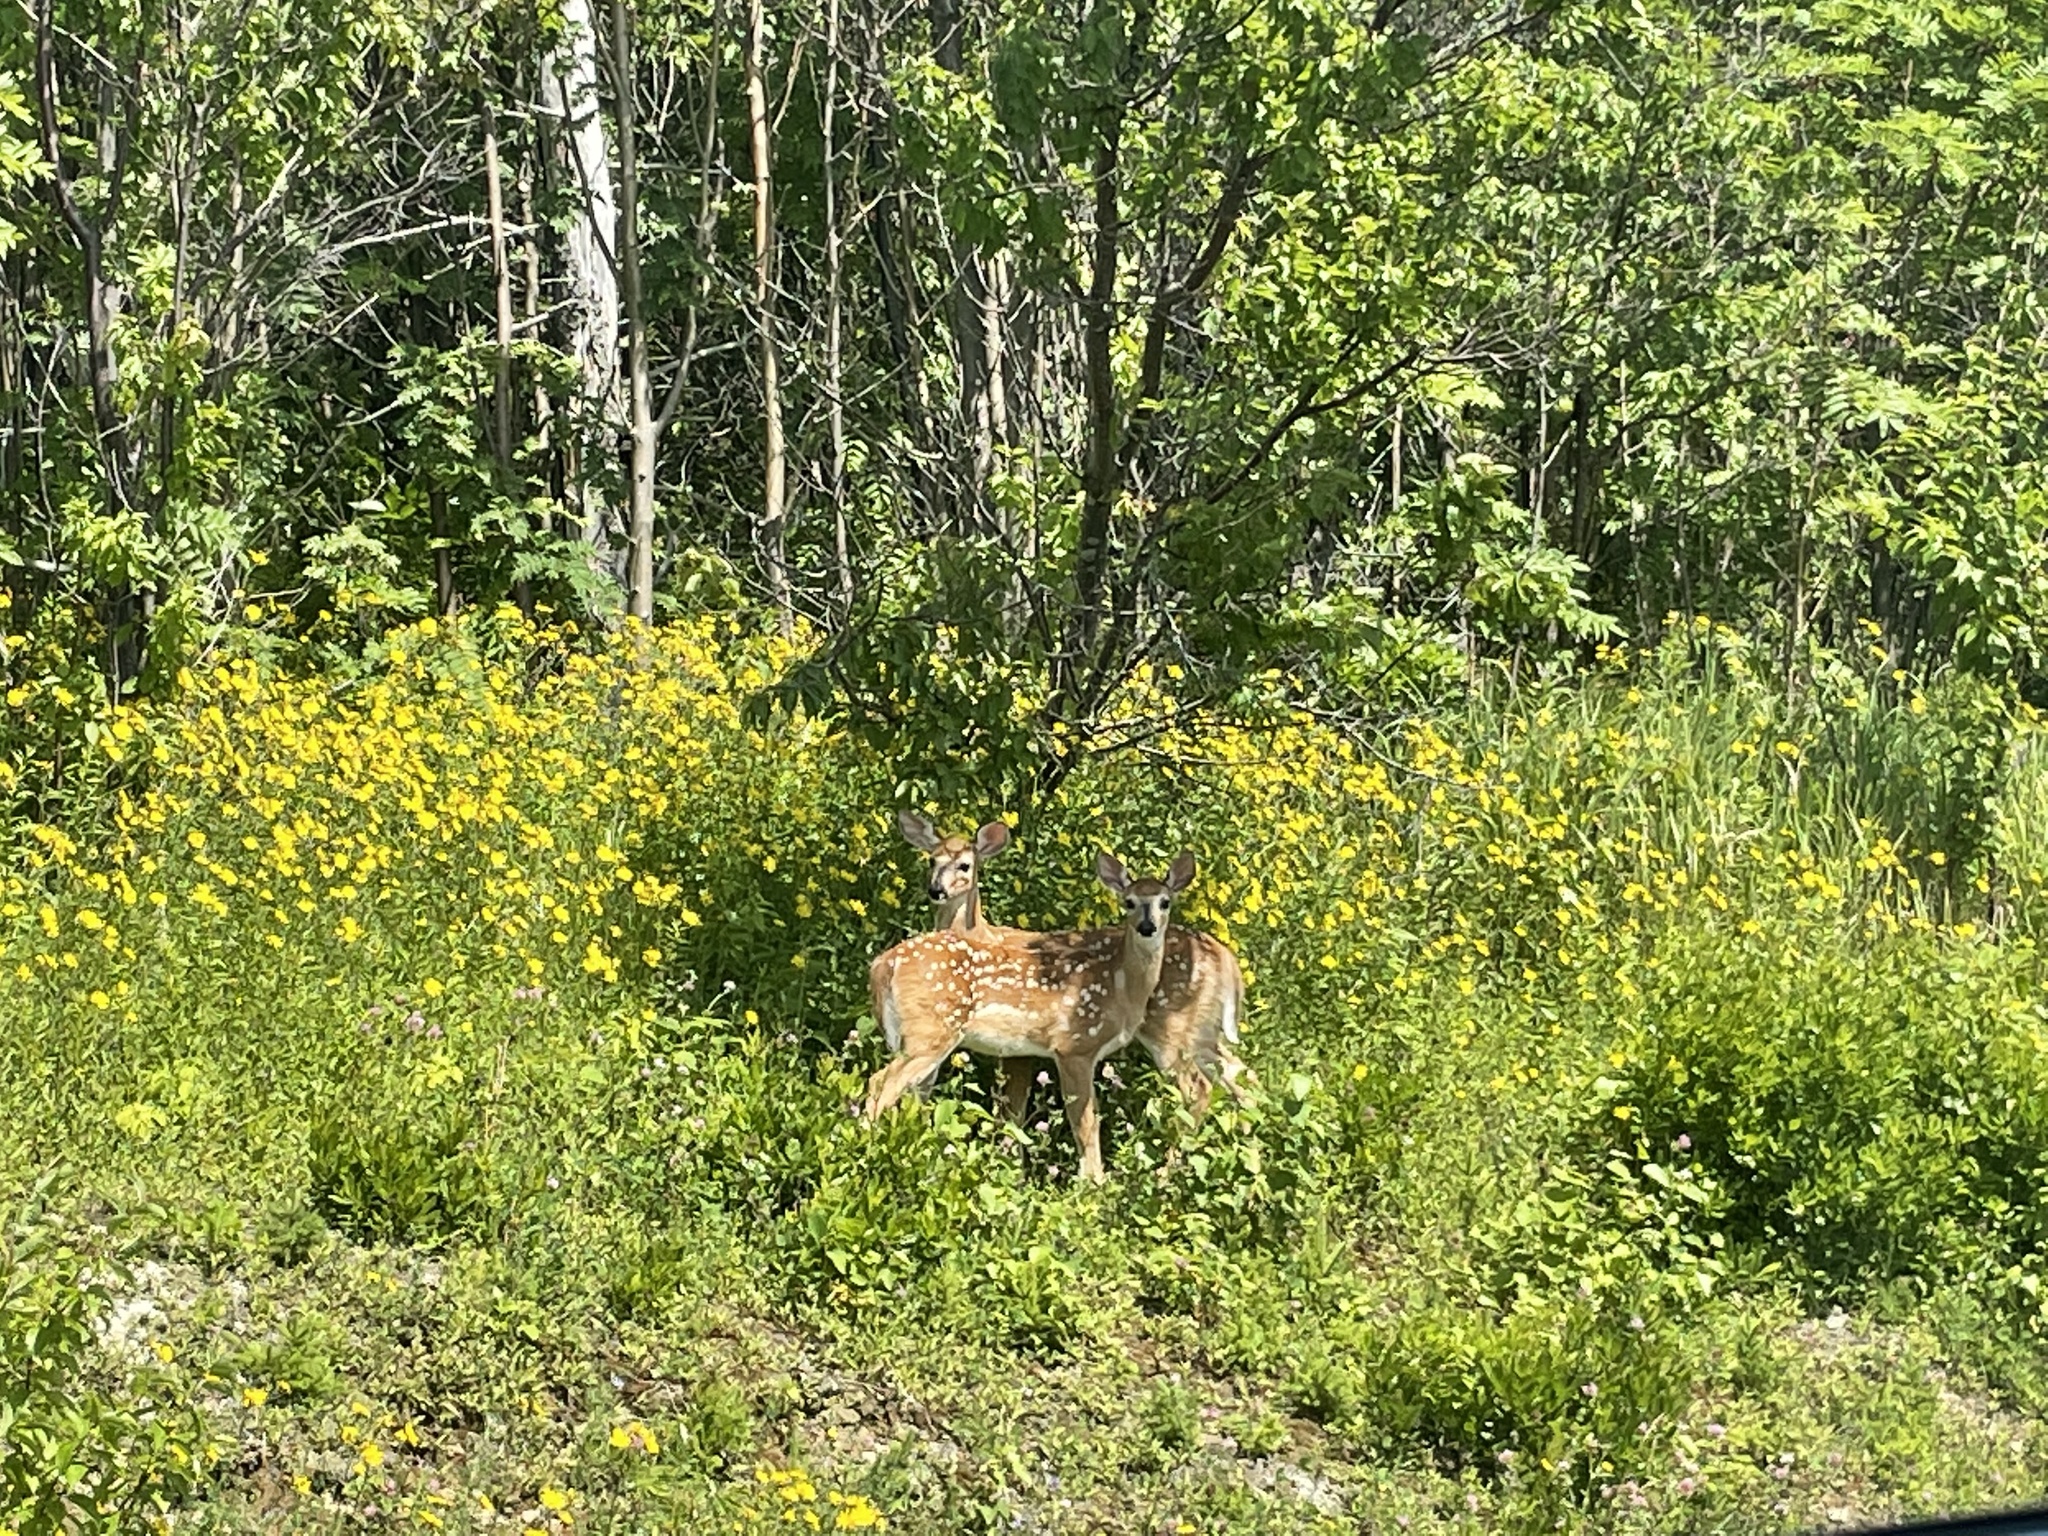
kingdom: Animalia
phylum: Chordata
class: Mammalia
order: Artiodactyla
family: Cervidae
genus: Odocoileus
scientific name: Odocoileus virginianus
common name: White-tailed deer
